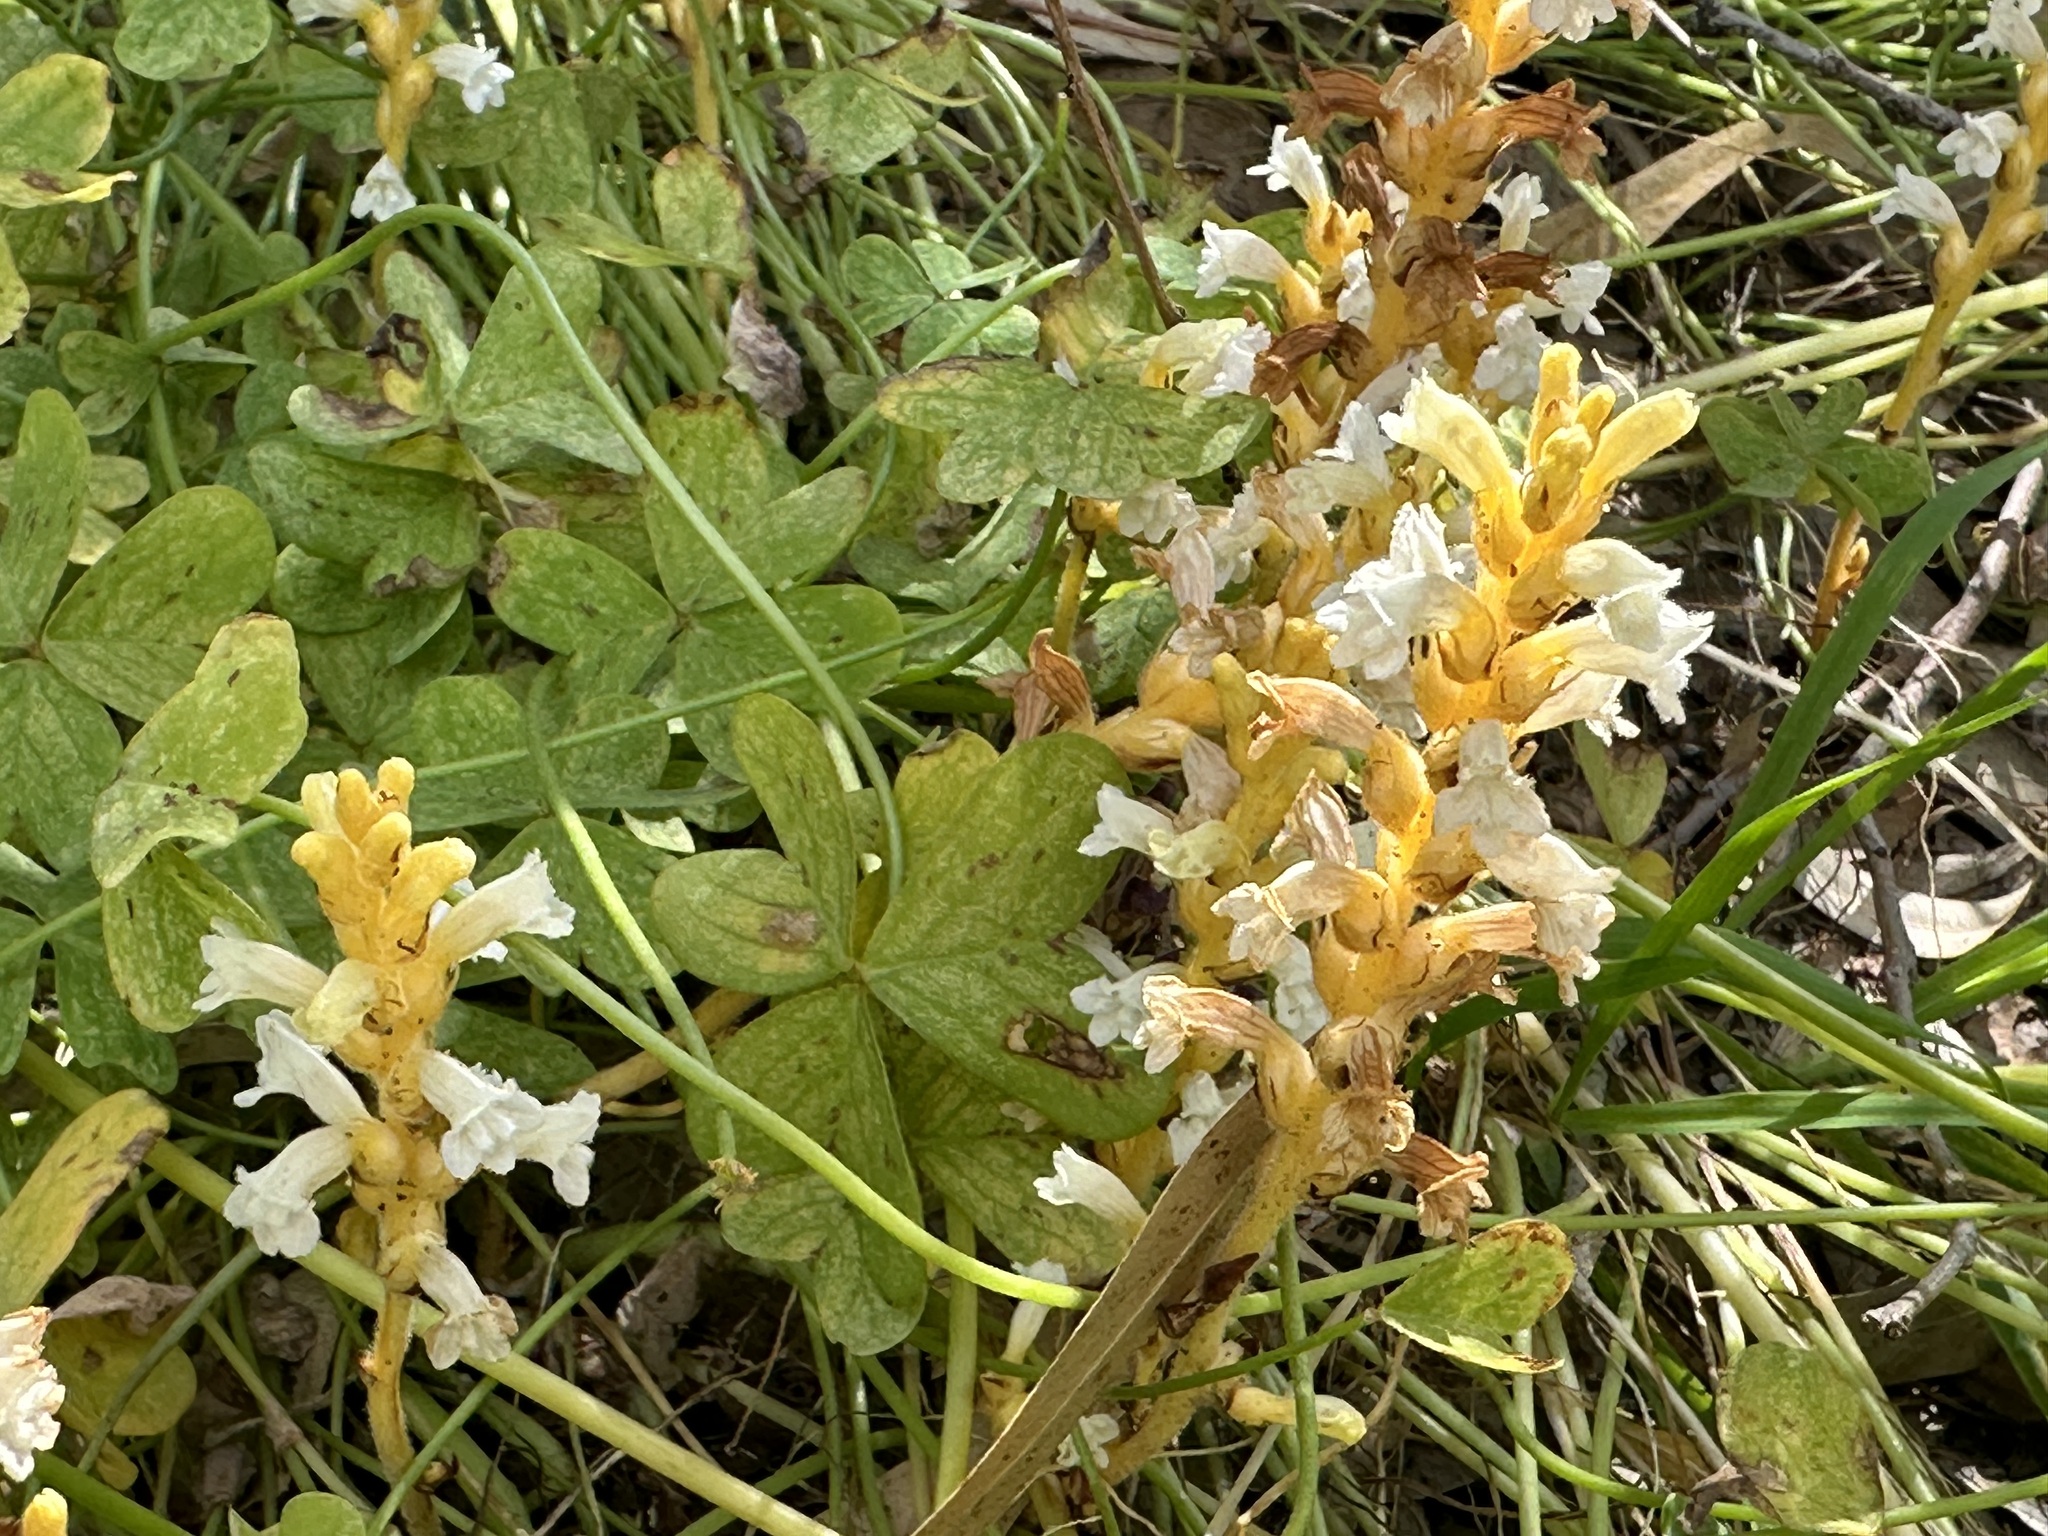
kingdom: Plantae
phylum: Tracheophyta
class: Magnoliopsida
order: Lamiales
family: Orobanchaceae
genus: Phelipanche
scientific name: Phelipanche mutelii
